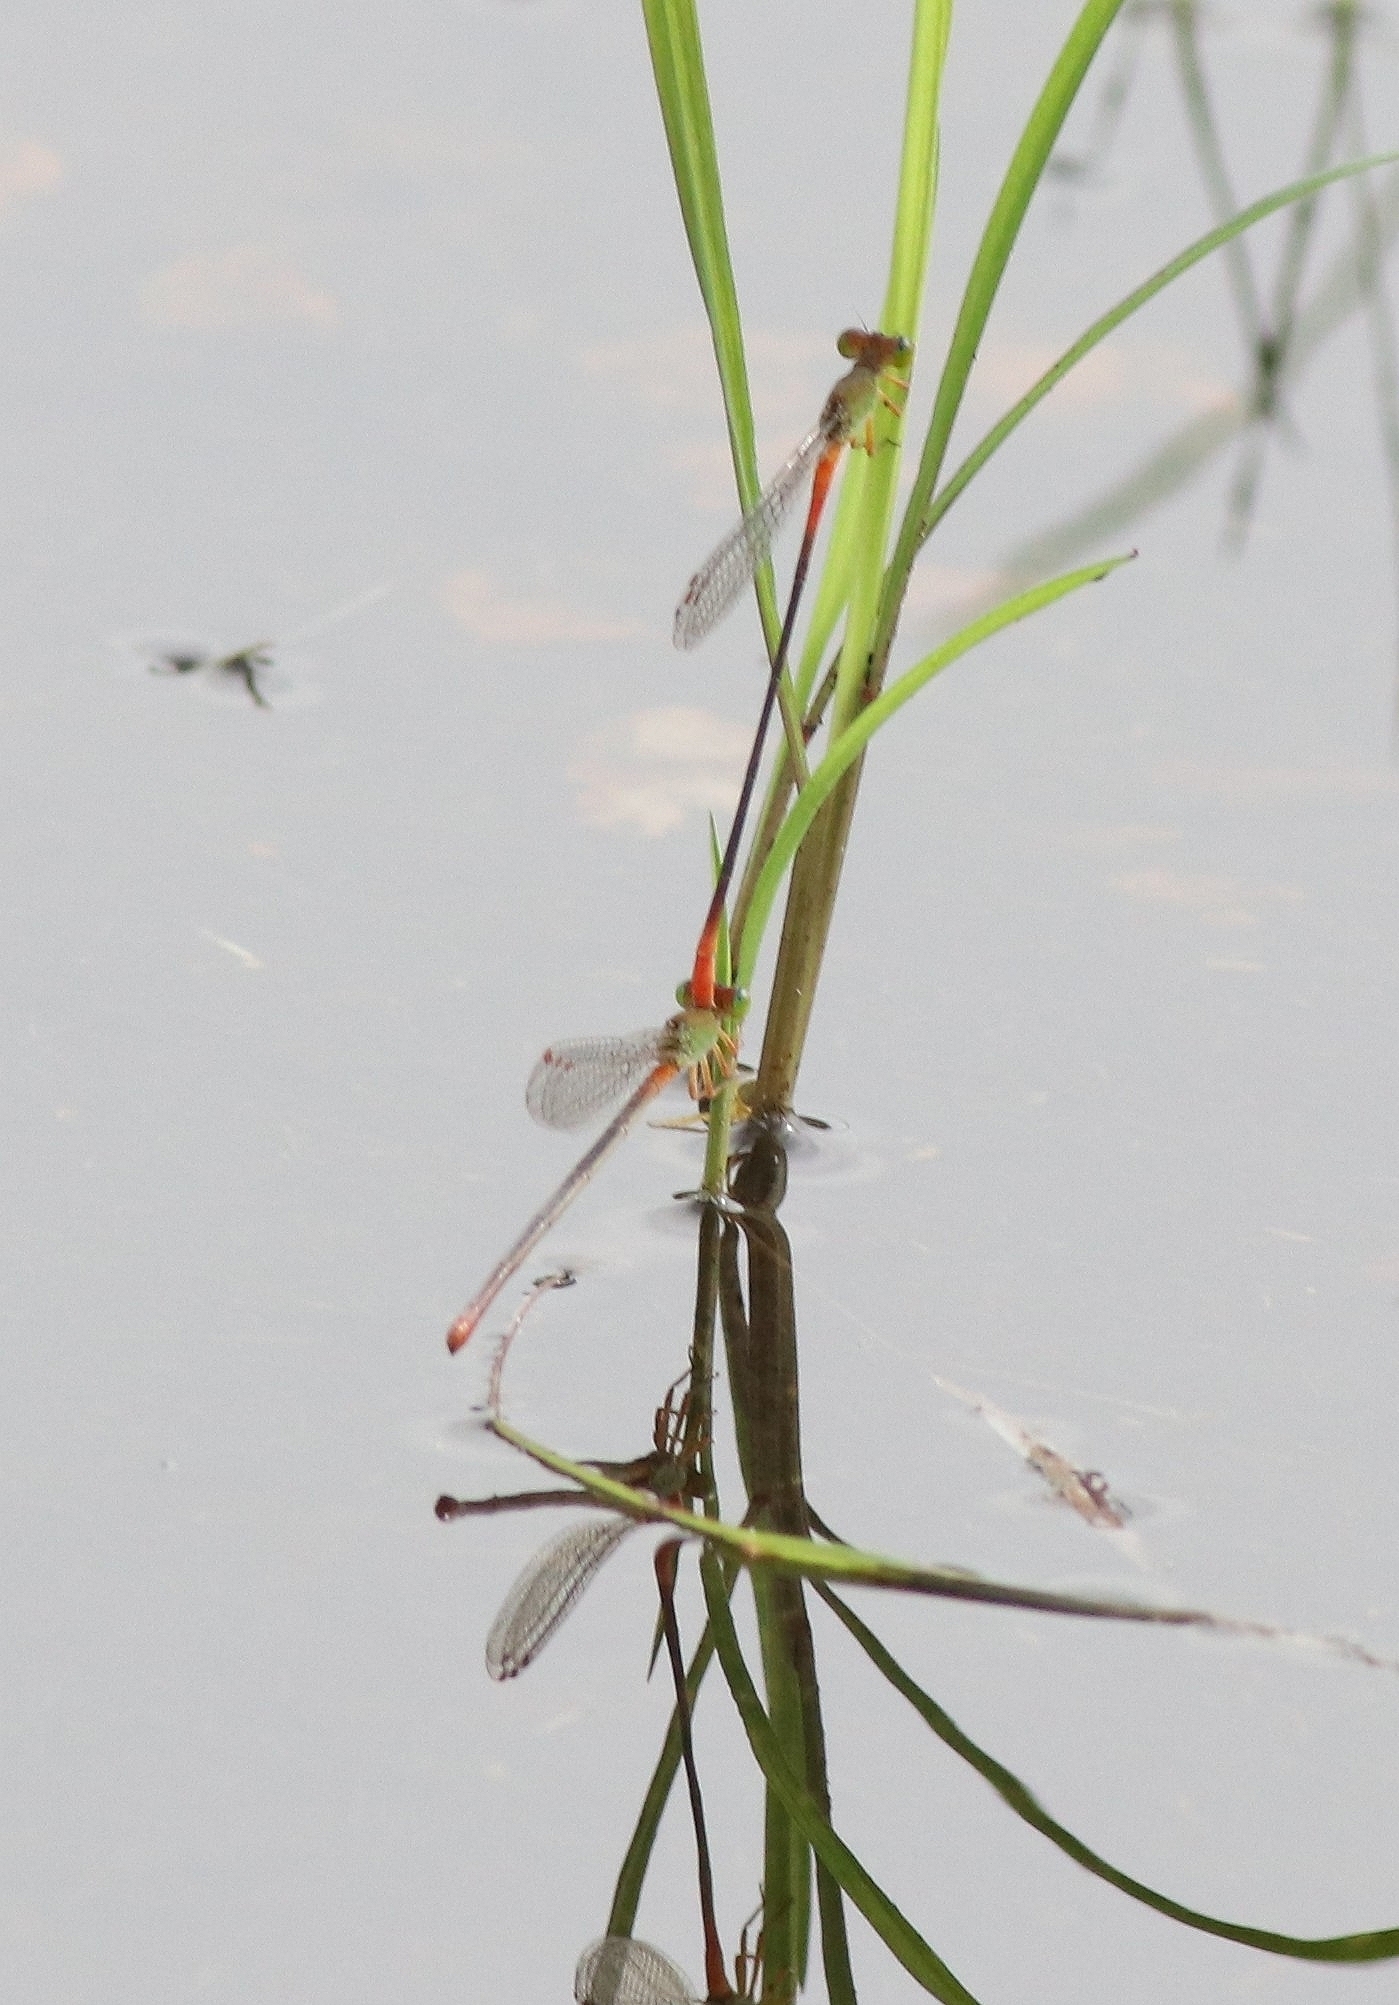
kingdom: Animalia
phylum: Arthropoda
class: Insecta
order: Odonata
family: Coenagrionidae
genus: Ceriagrion
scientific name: Ceriagrion cerinorubellum
